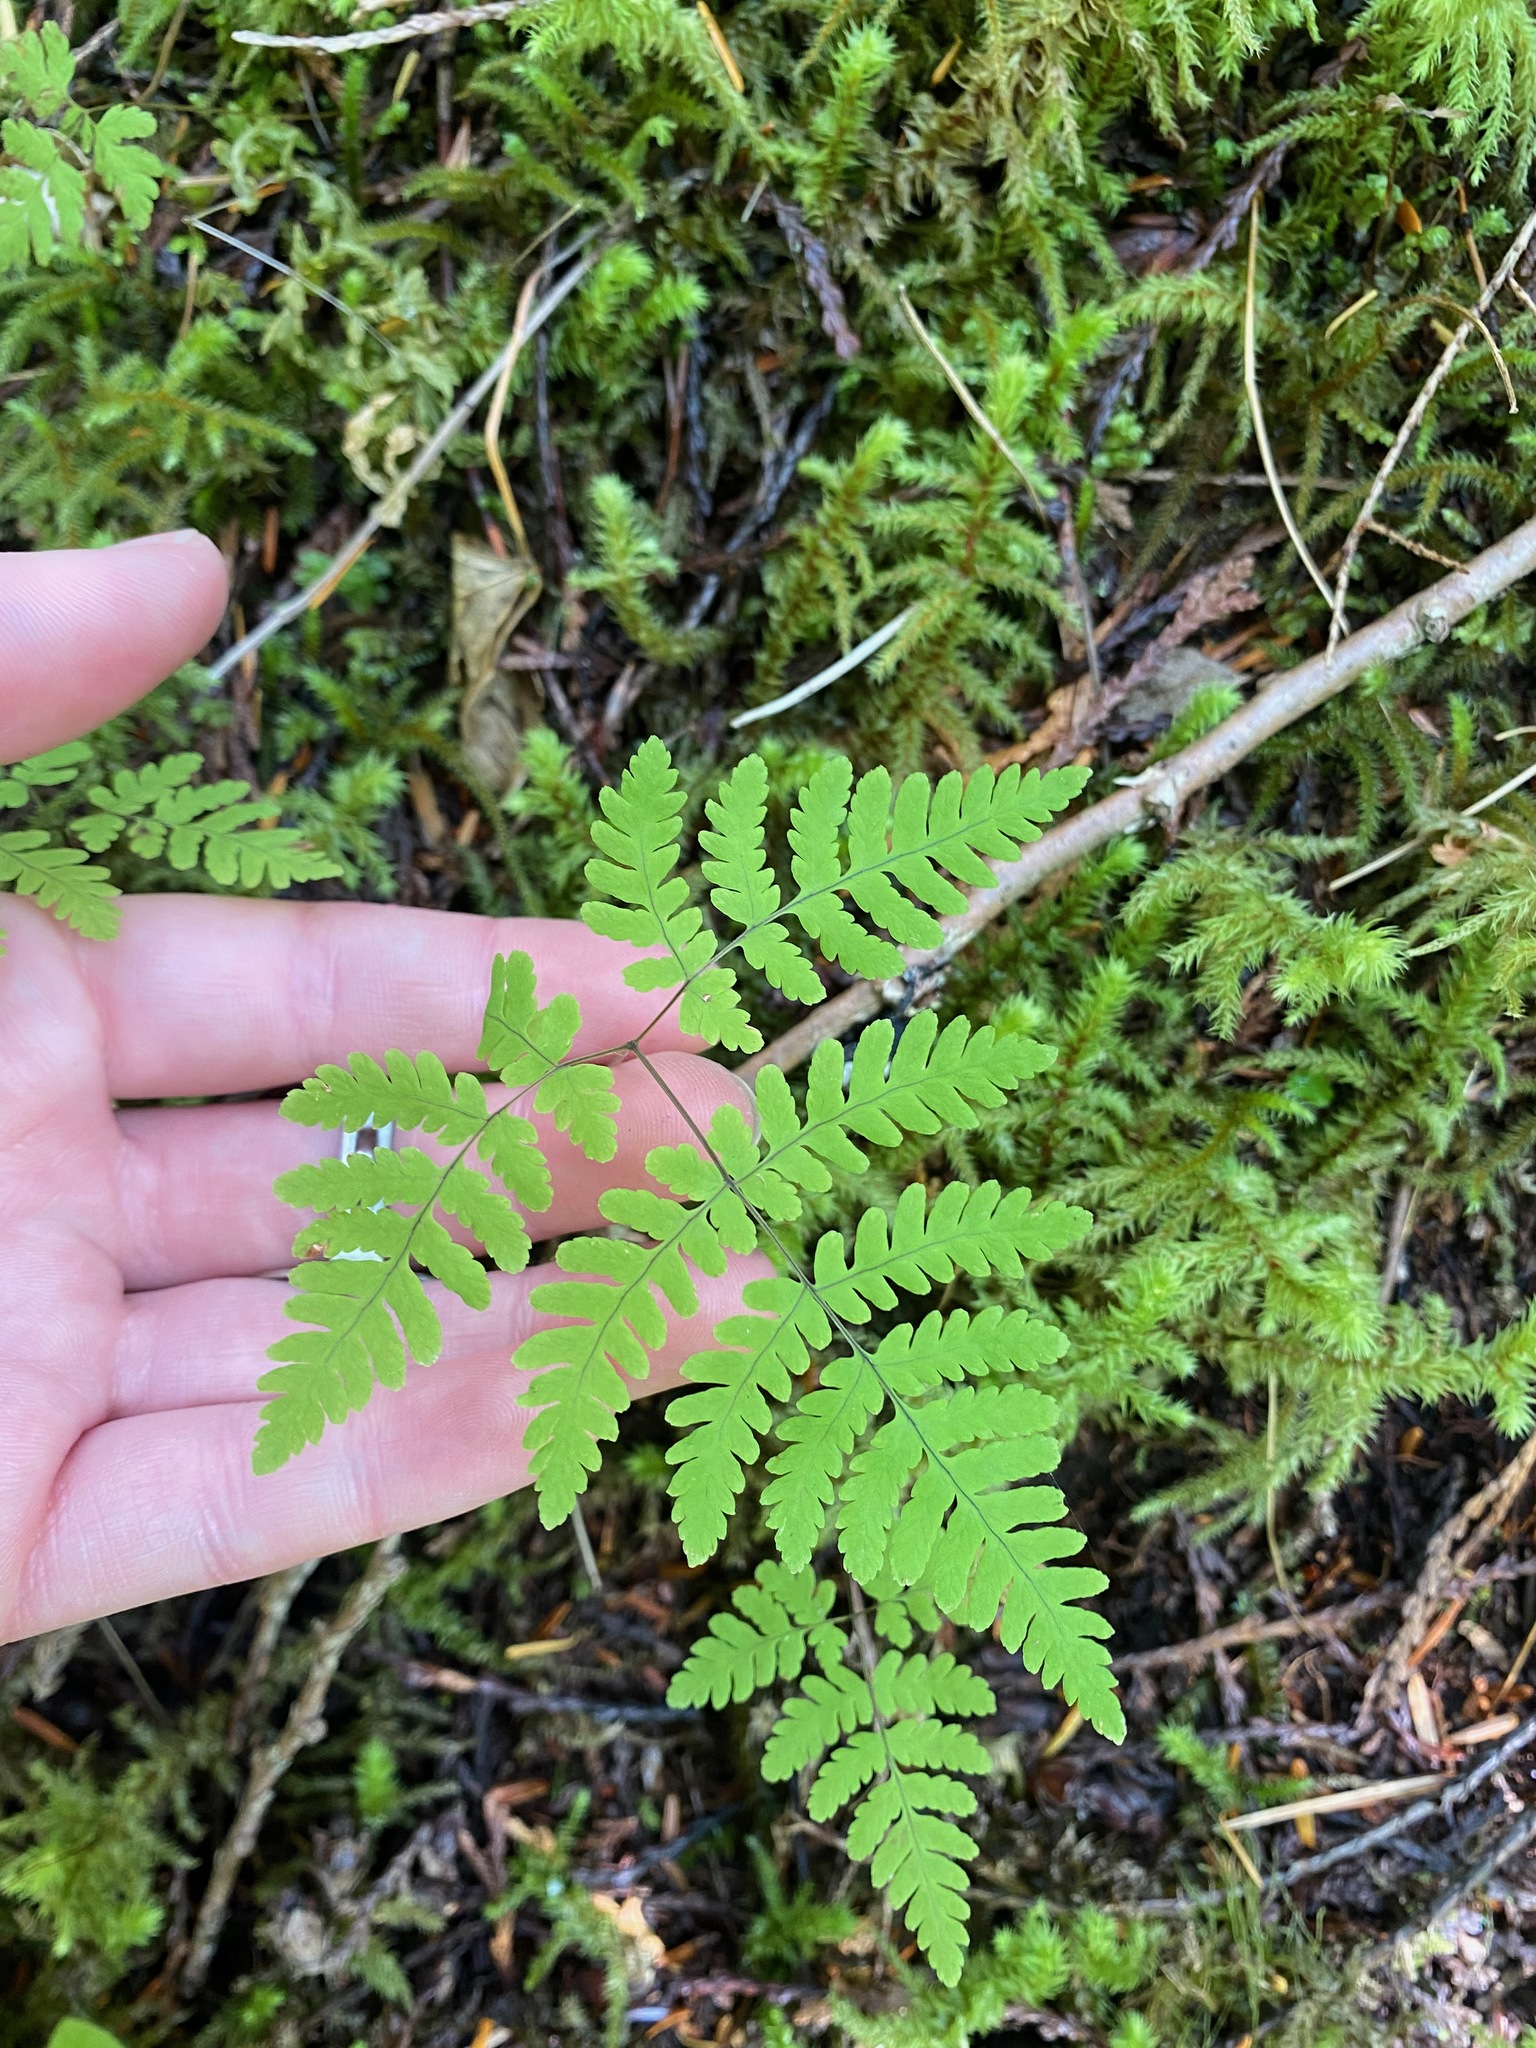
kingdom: Plantae
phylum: Tracheophyta
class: Polypodiopsida
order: Polypodiales
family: Cystopteridaceae
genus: Gymnocarpium
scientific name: Gymnocarpium dryopteris
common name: Oak fern
